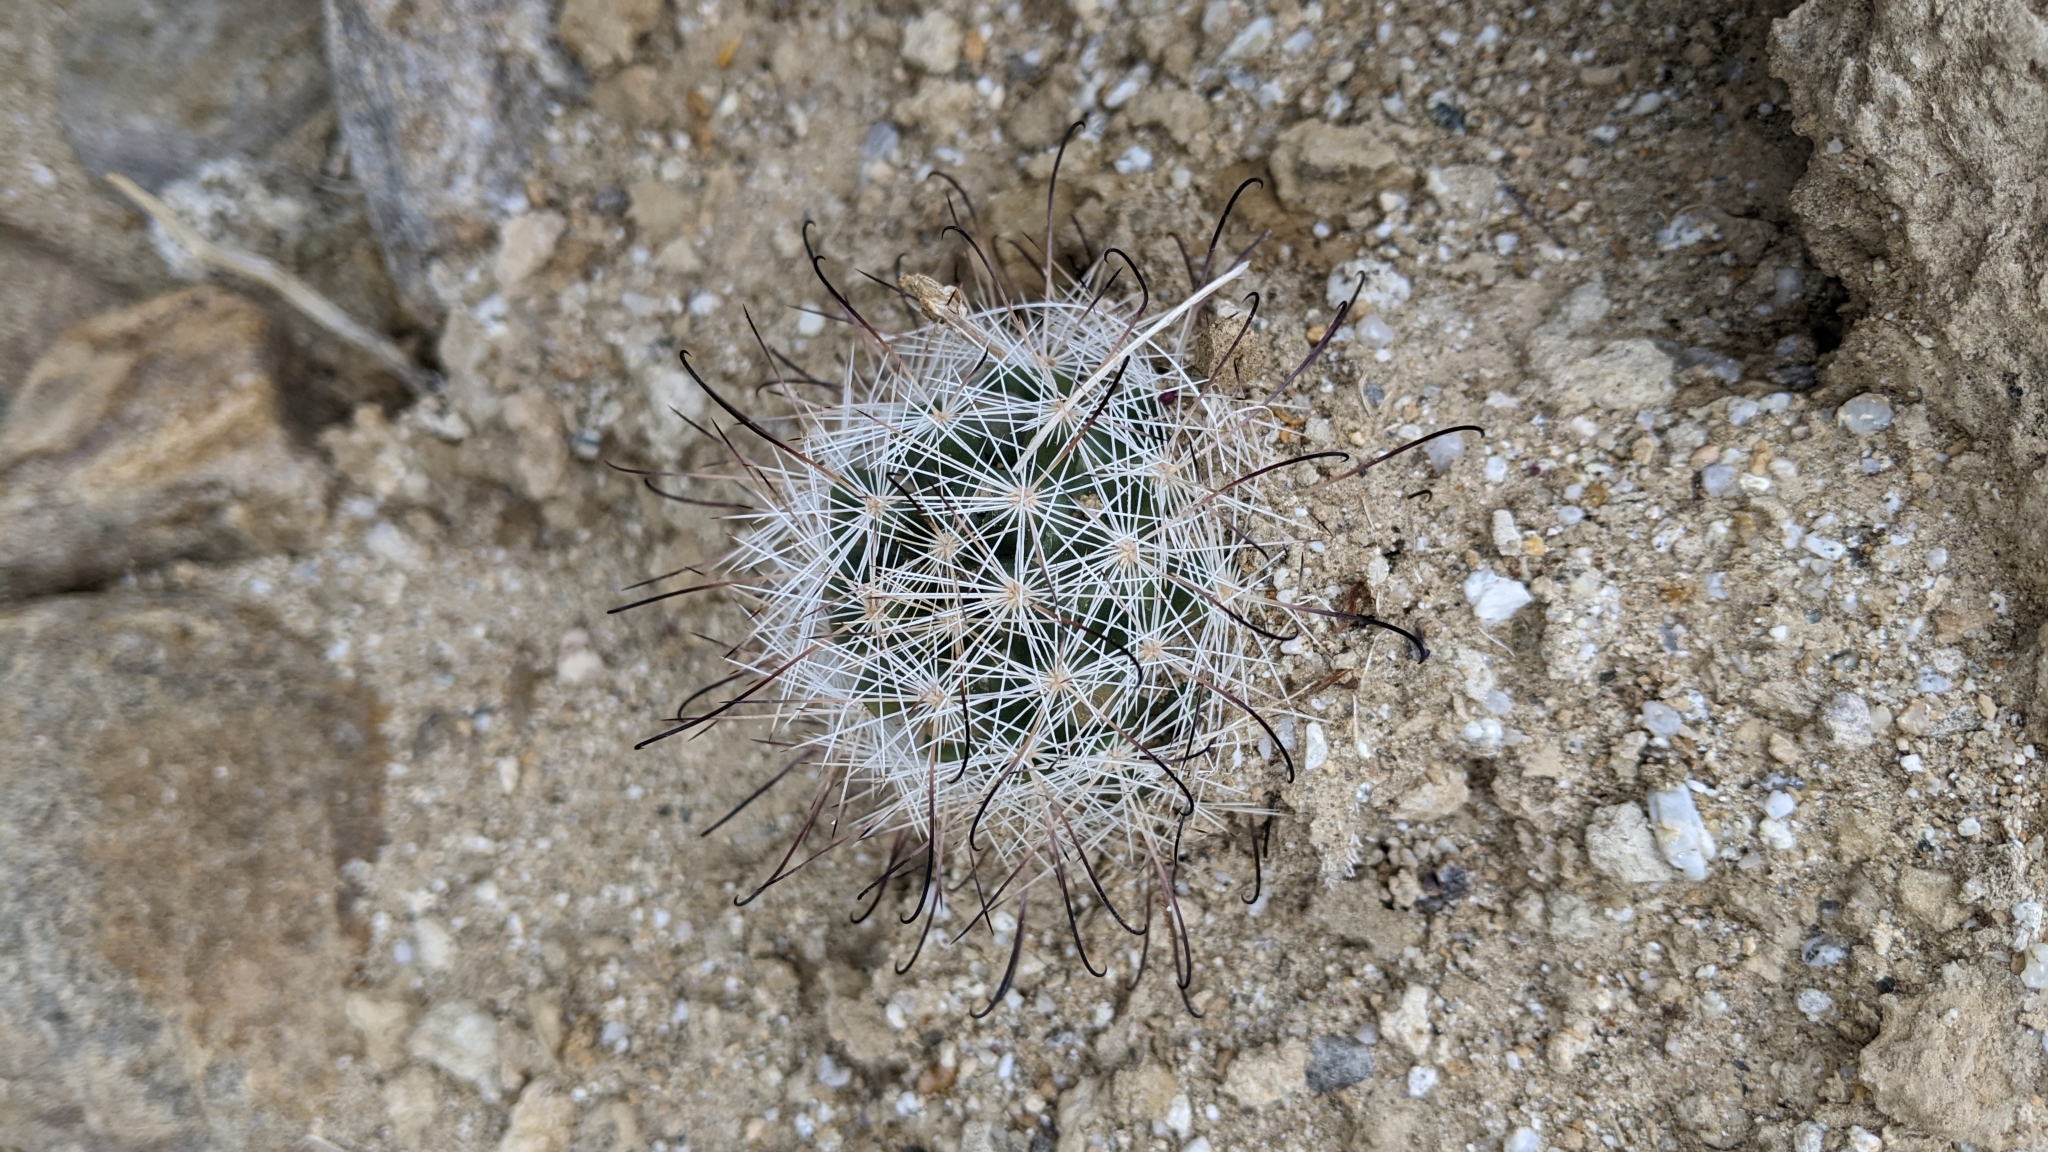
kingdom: Plantae
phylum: Tracheophyta
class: Magnoliopsida
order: Caryophyllales
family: Cactaceae
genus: Cochemiea
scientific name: Cochemiea tetrancistra
